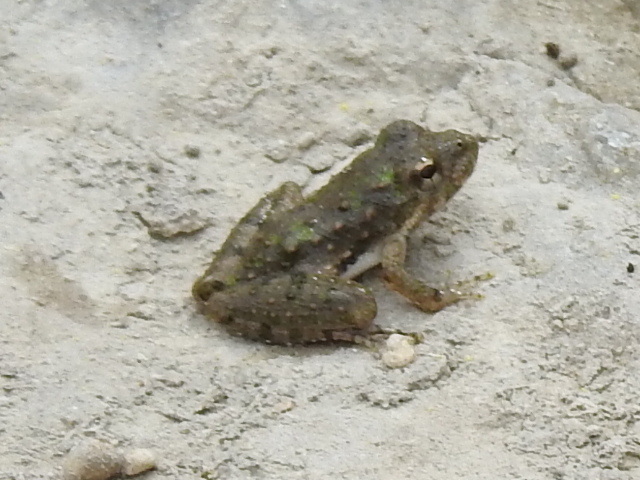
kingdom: Animalia
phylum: Chordata
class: Amphibia
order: Anura
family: Hylidae
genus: Acris
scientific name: Acris blanchardi
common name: Blanchard's cricket frog
